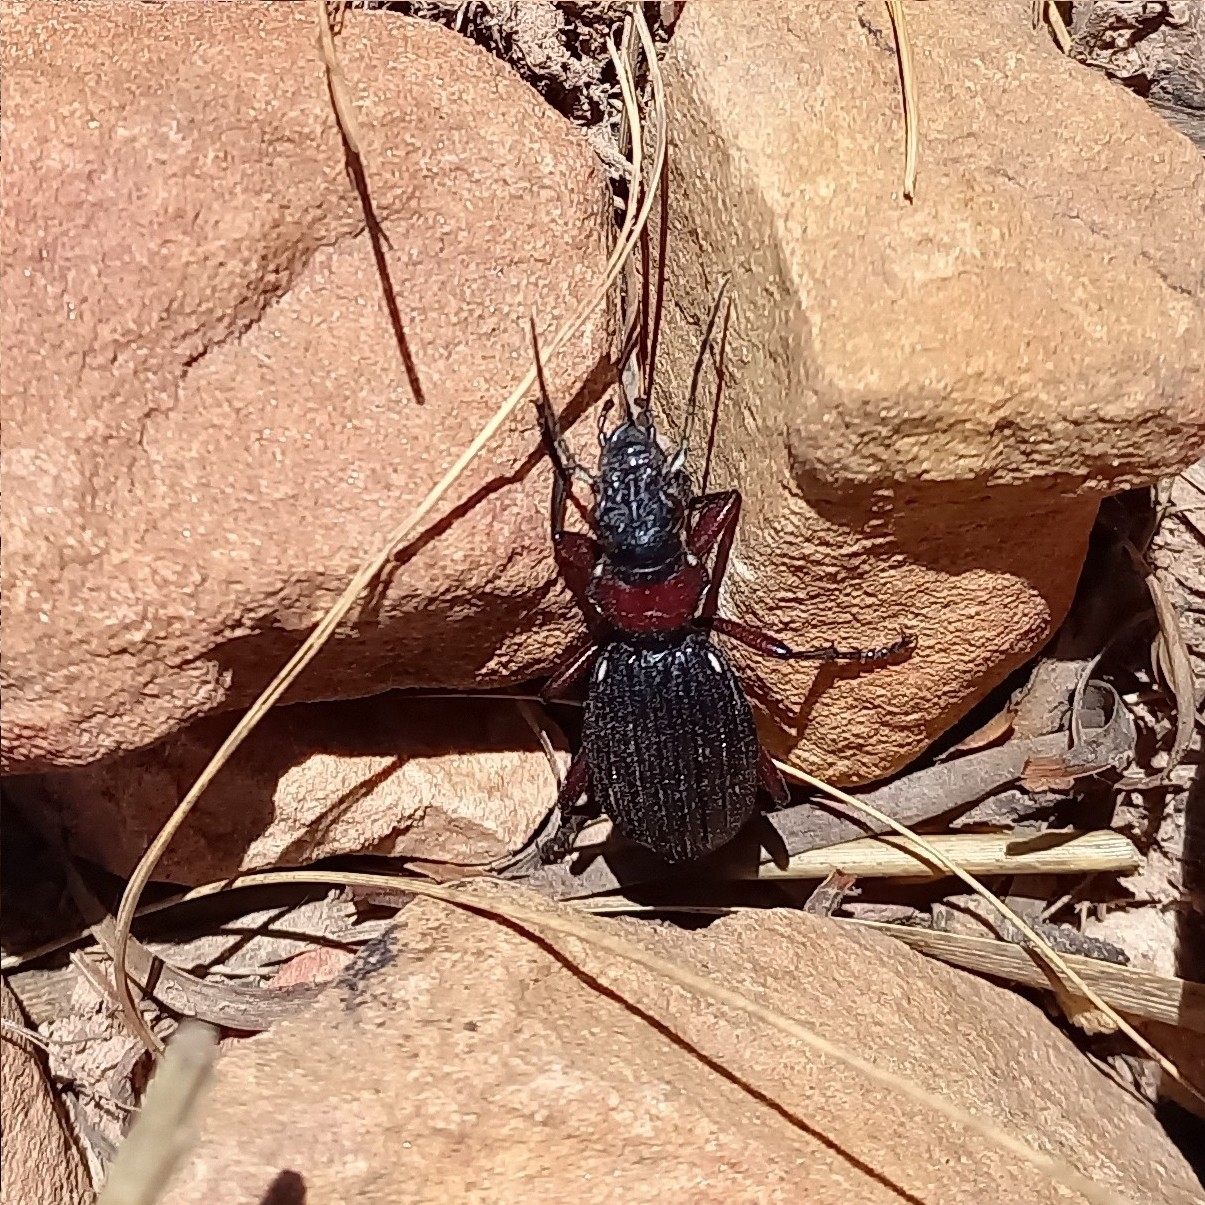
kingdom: Animalia
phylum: Arthropoda
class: Insecta
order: Coleoptera
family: Carabidae
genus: Anthia
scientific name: Anthia decemguttata
